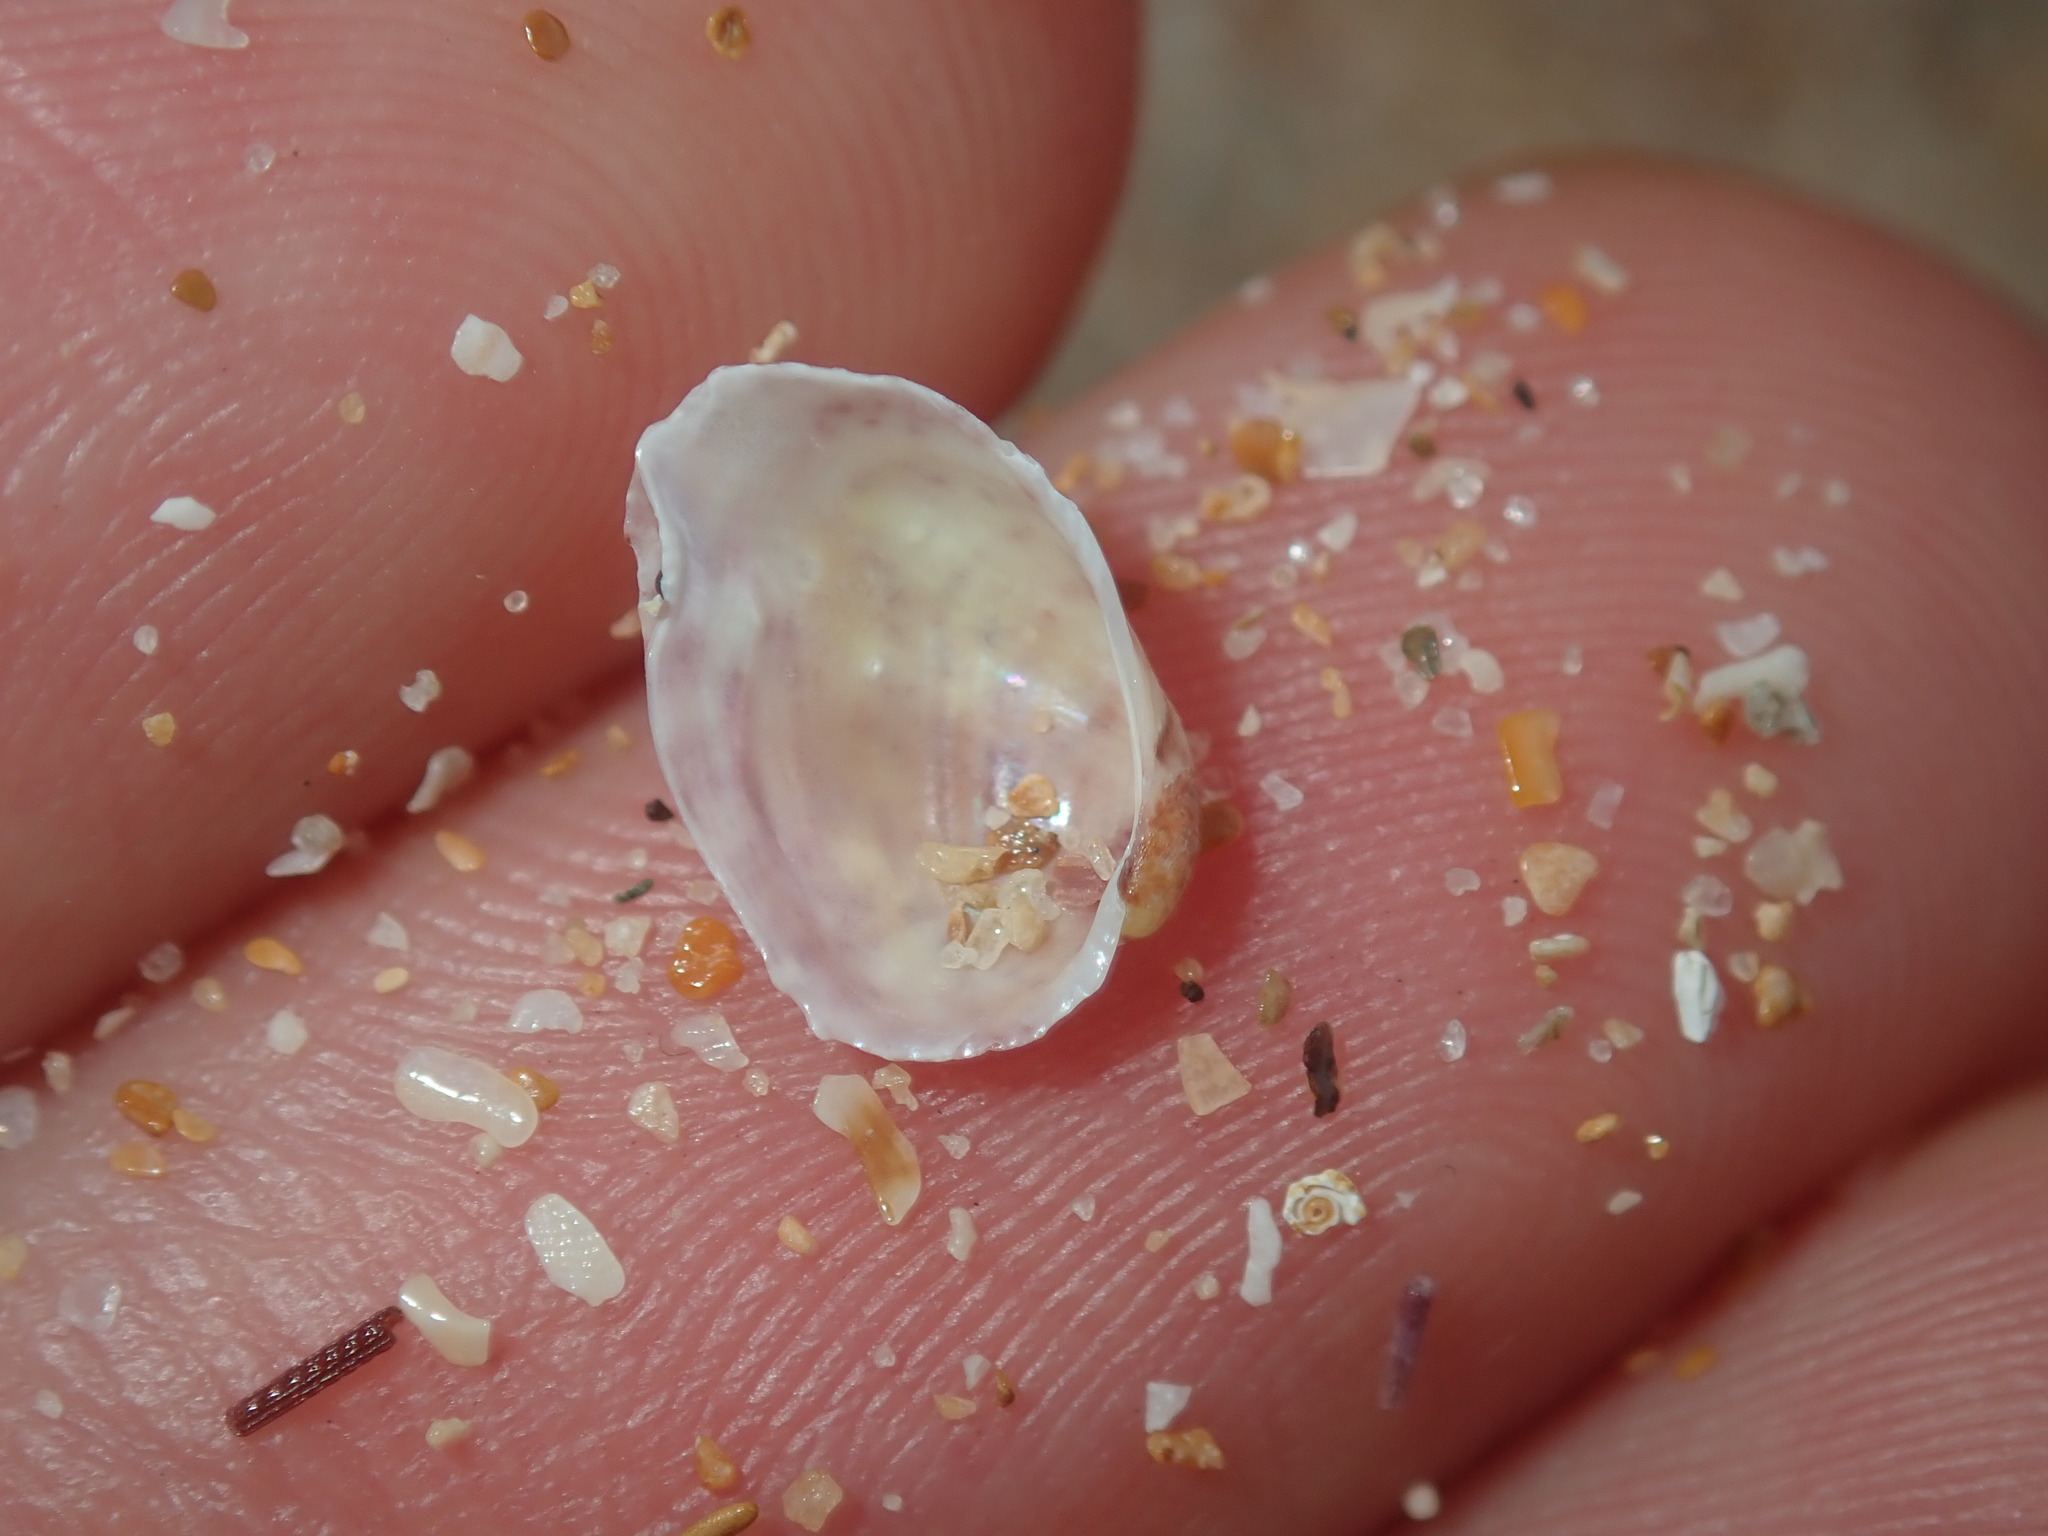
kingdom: Animalia
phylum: Mollusca
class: Bivalvia
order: Mytilida
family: Mytilidae
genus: Musculus
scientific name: Musculus impactus
